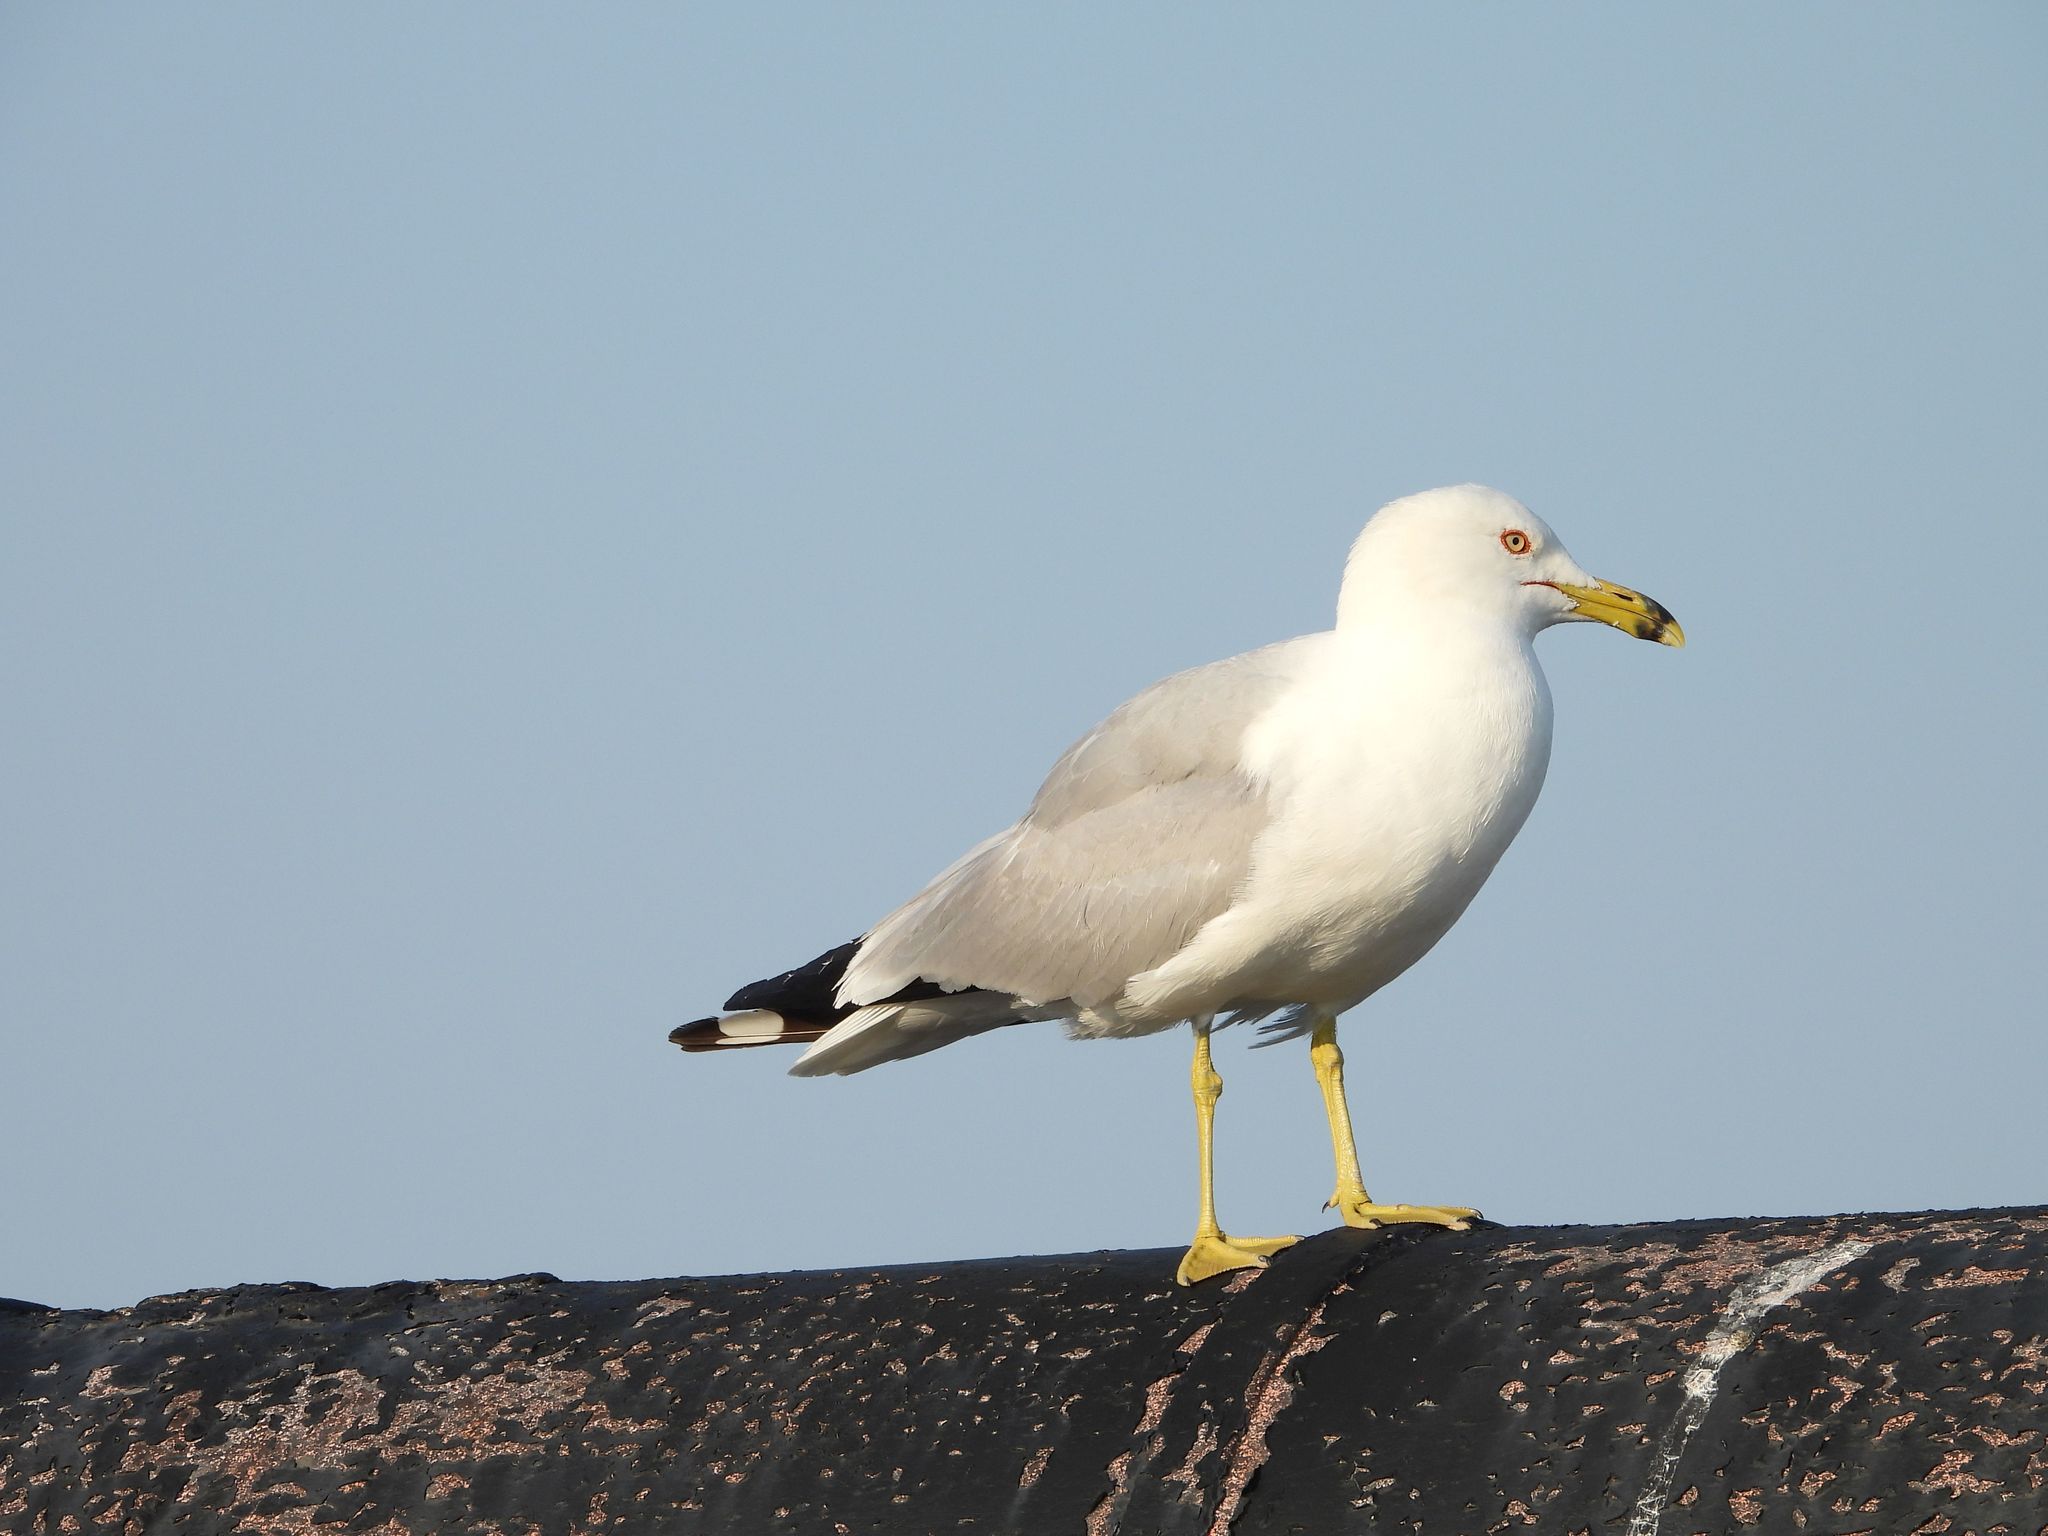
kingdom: Animalia
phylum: Chordata
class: Aves
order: Charadriiformes
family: Laridae
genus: Larus
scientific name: Larus delawarensis
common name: Ring-billed gull
